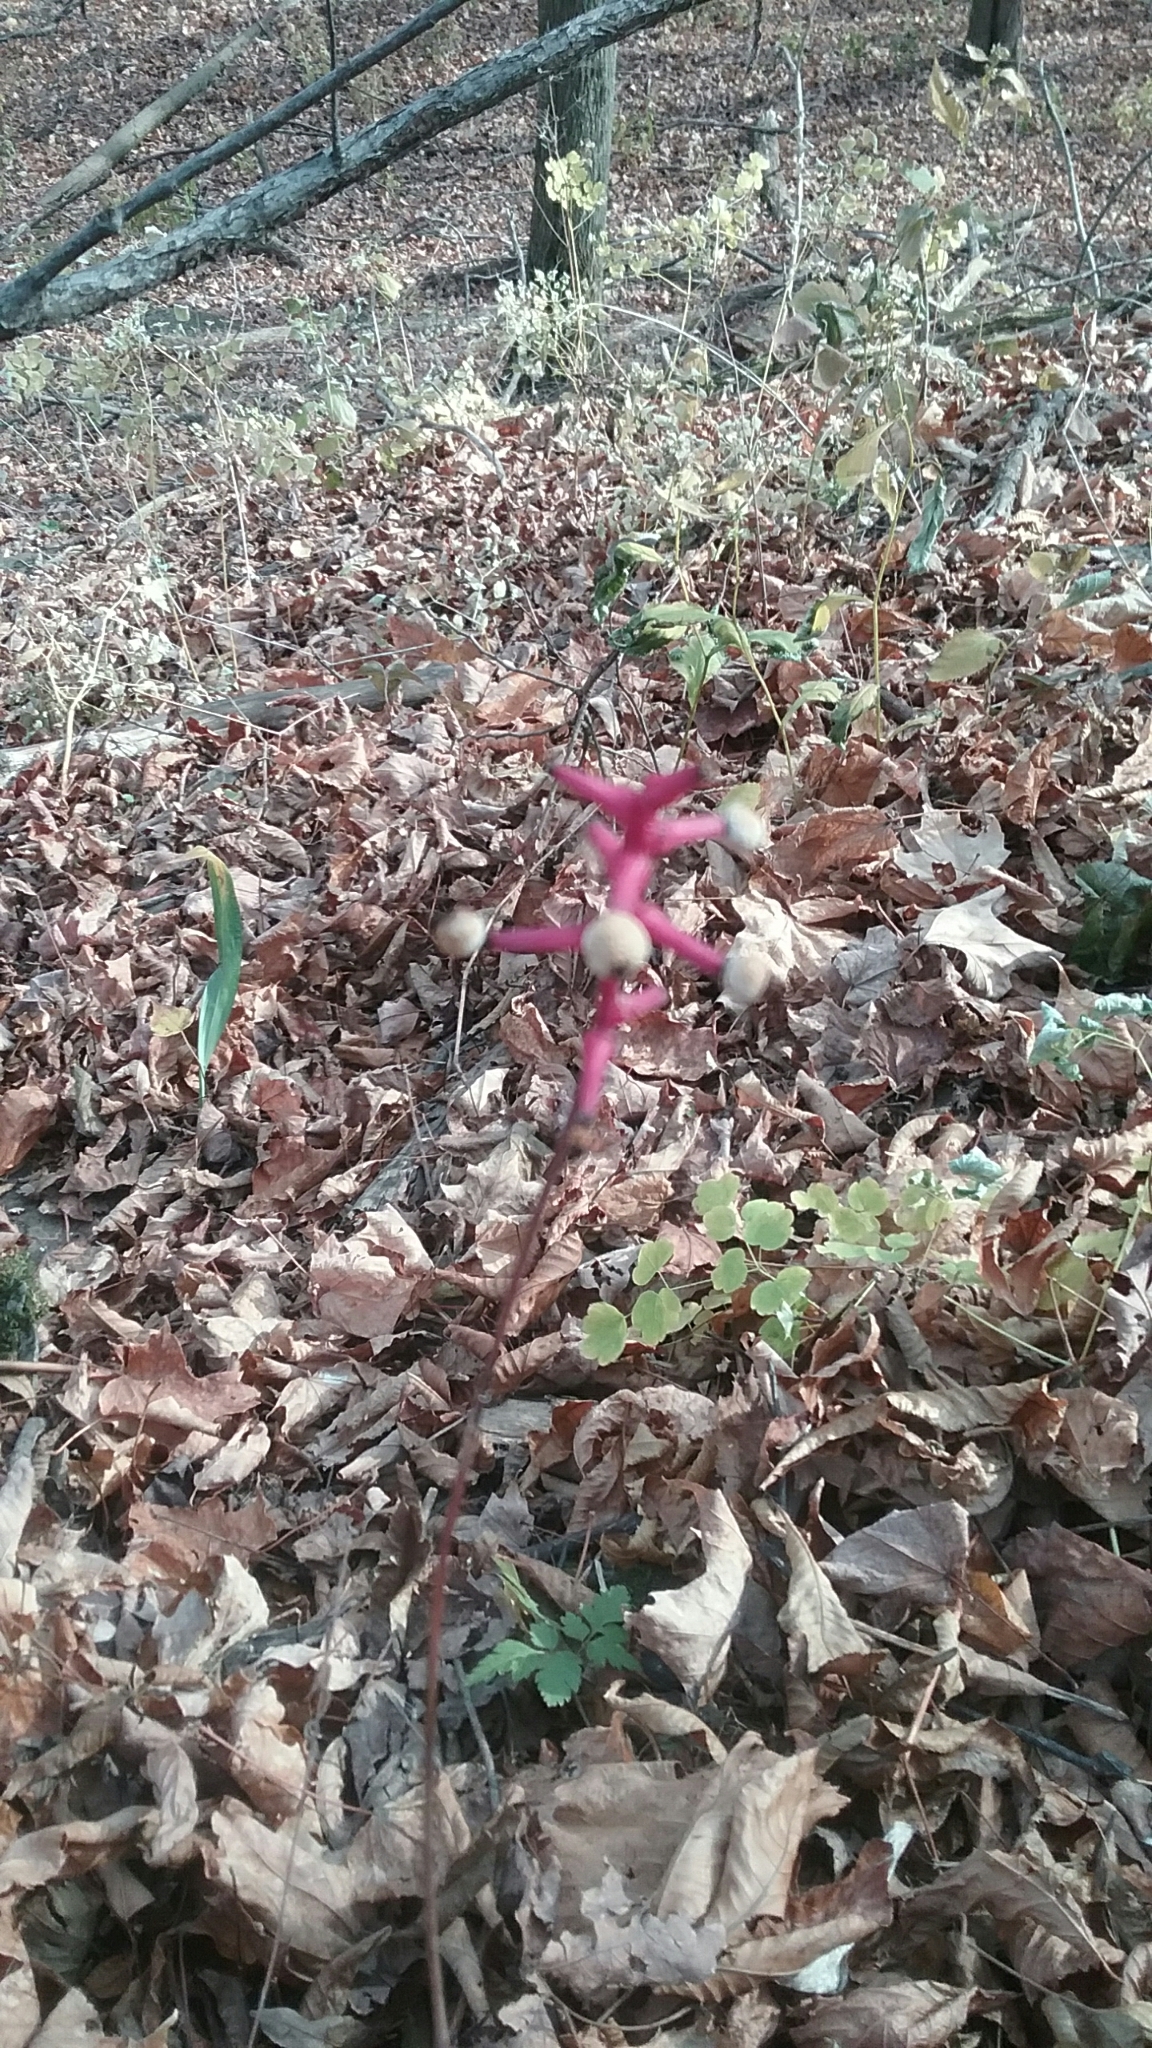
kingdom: Plantae
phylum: Tracheophyta
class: Magnoliopsida
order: Ranunculales
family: Ranunculaceae
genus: Actaea
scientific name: Actaea pachypoda
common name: Doll's-eyes
